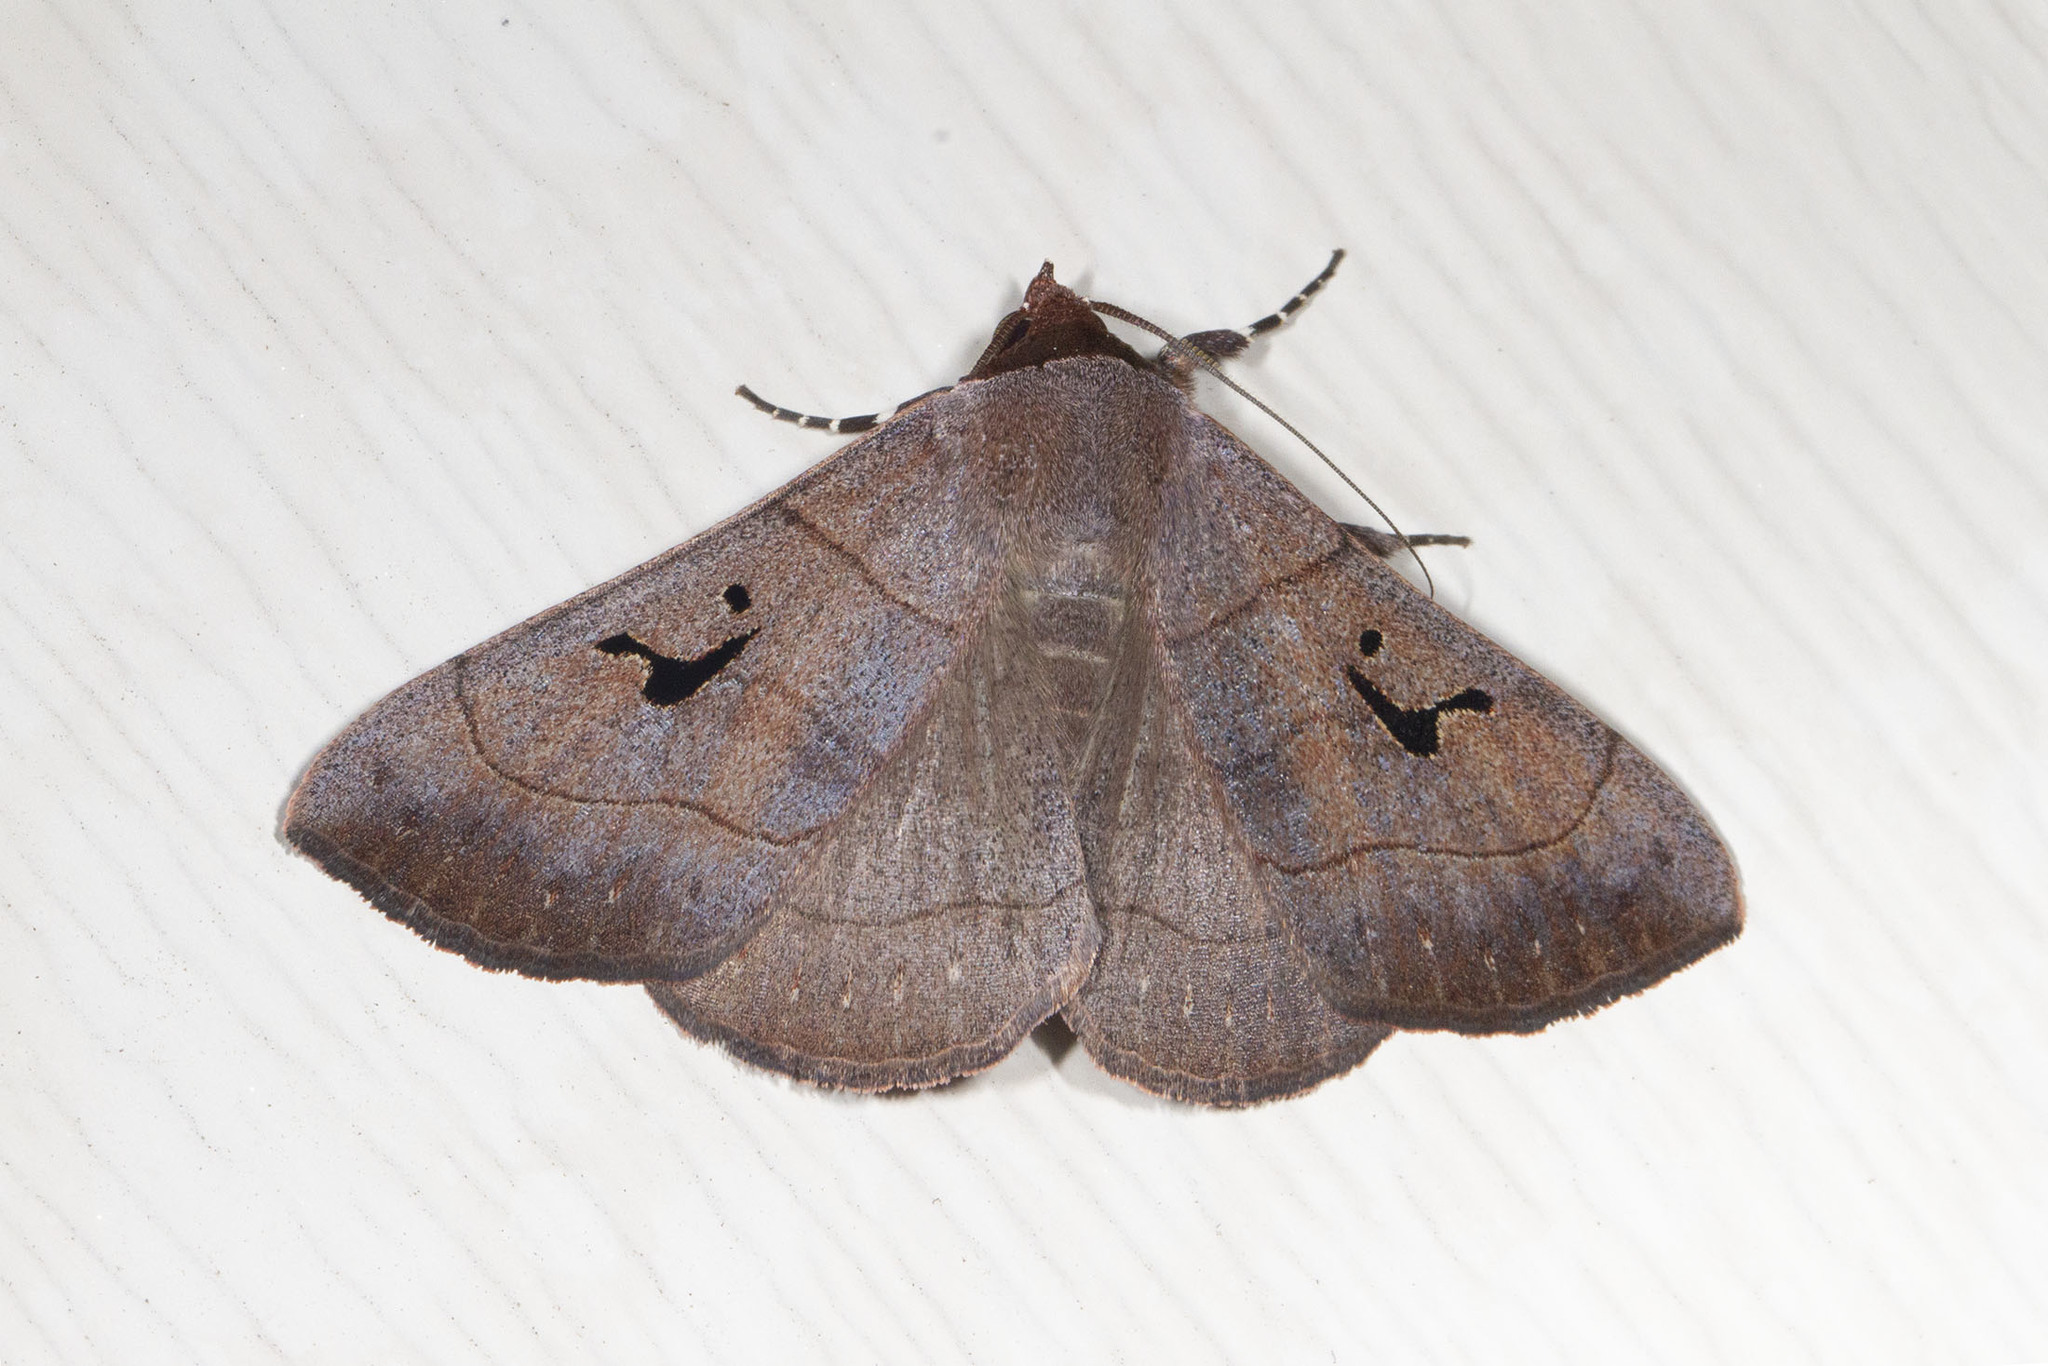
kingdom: Animalia
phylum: Arthropoda
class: Insecta
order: Lepidoptera
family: Erebidae
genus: Panopoda
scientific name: Panopoda carneicosta
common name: Brown panopoda moth
